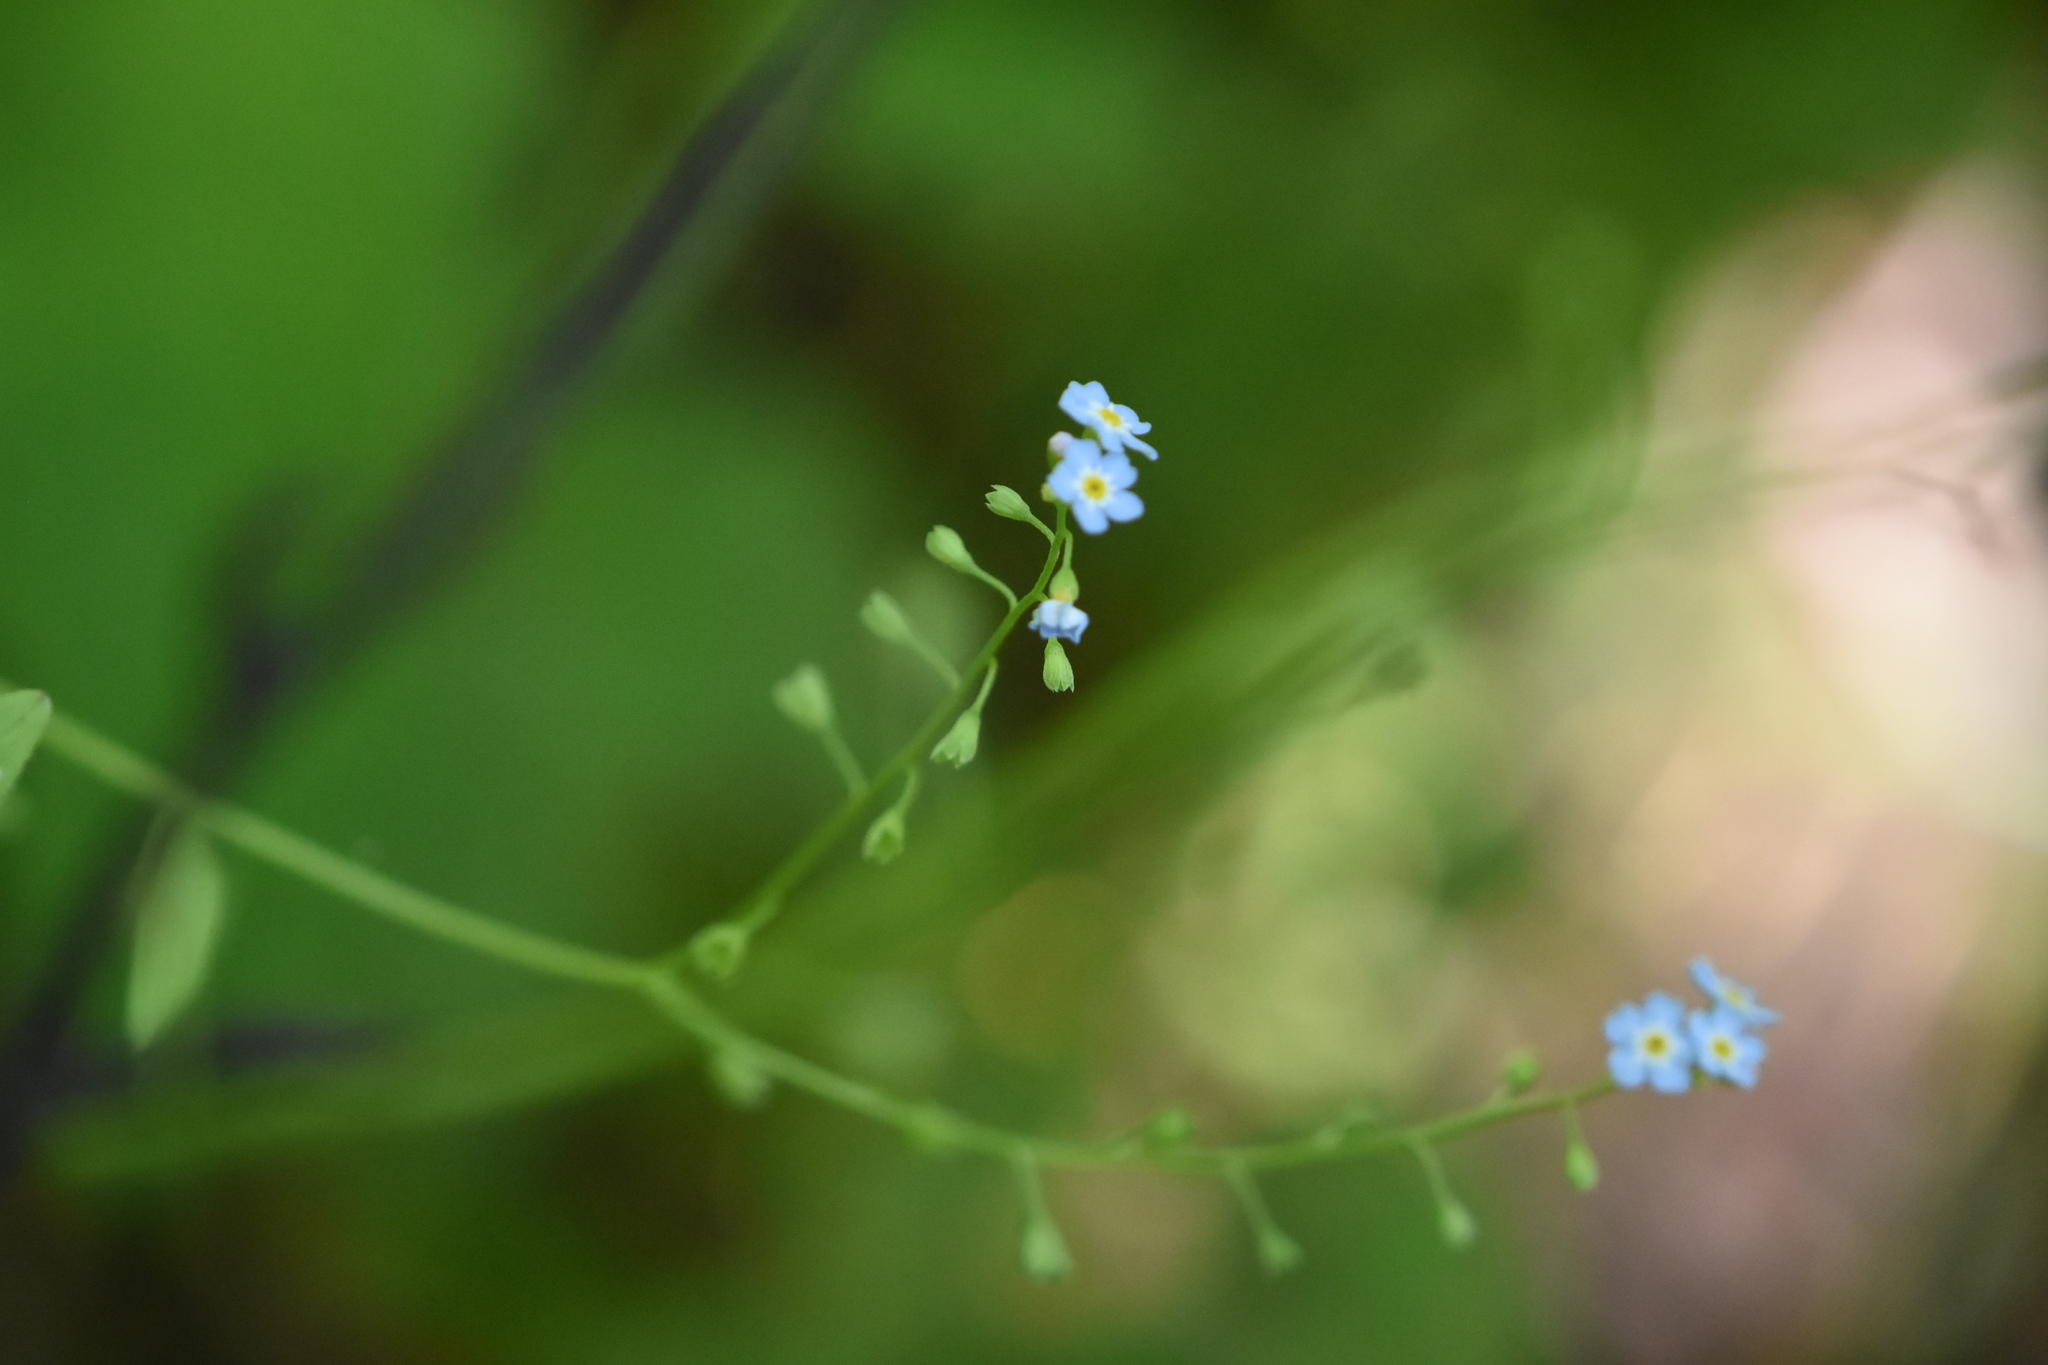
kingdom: Plantae
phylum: Tracheophyta
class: Magnoliopsida
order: Boraginales
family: Boraginaceae
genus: Myosotis
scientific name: Myosotis scorpioides
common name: Water forget-me-not
